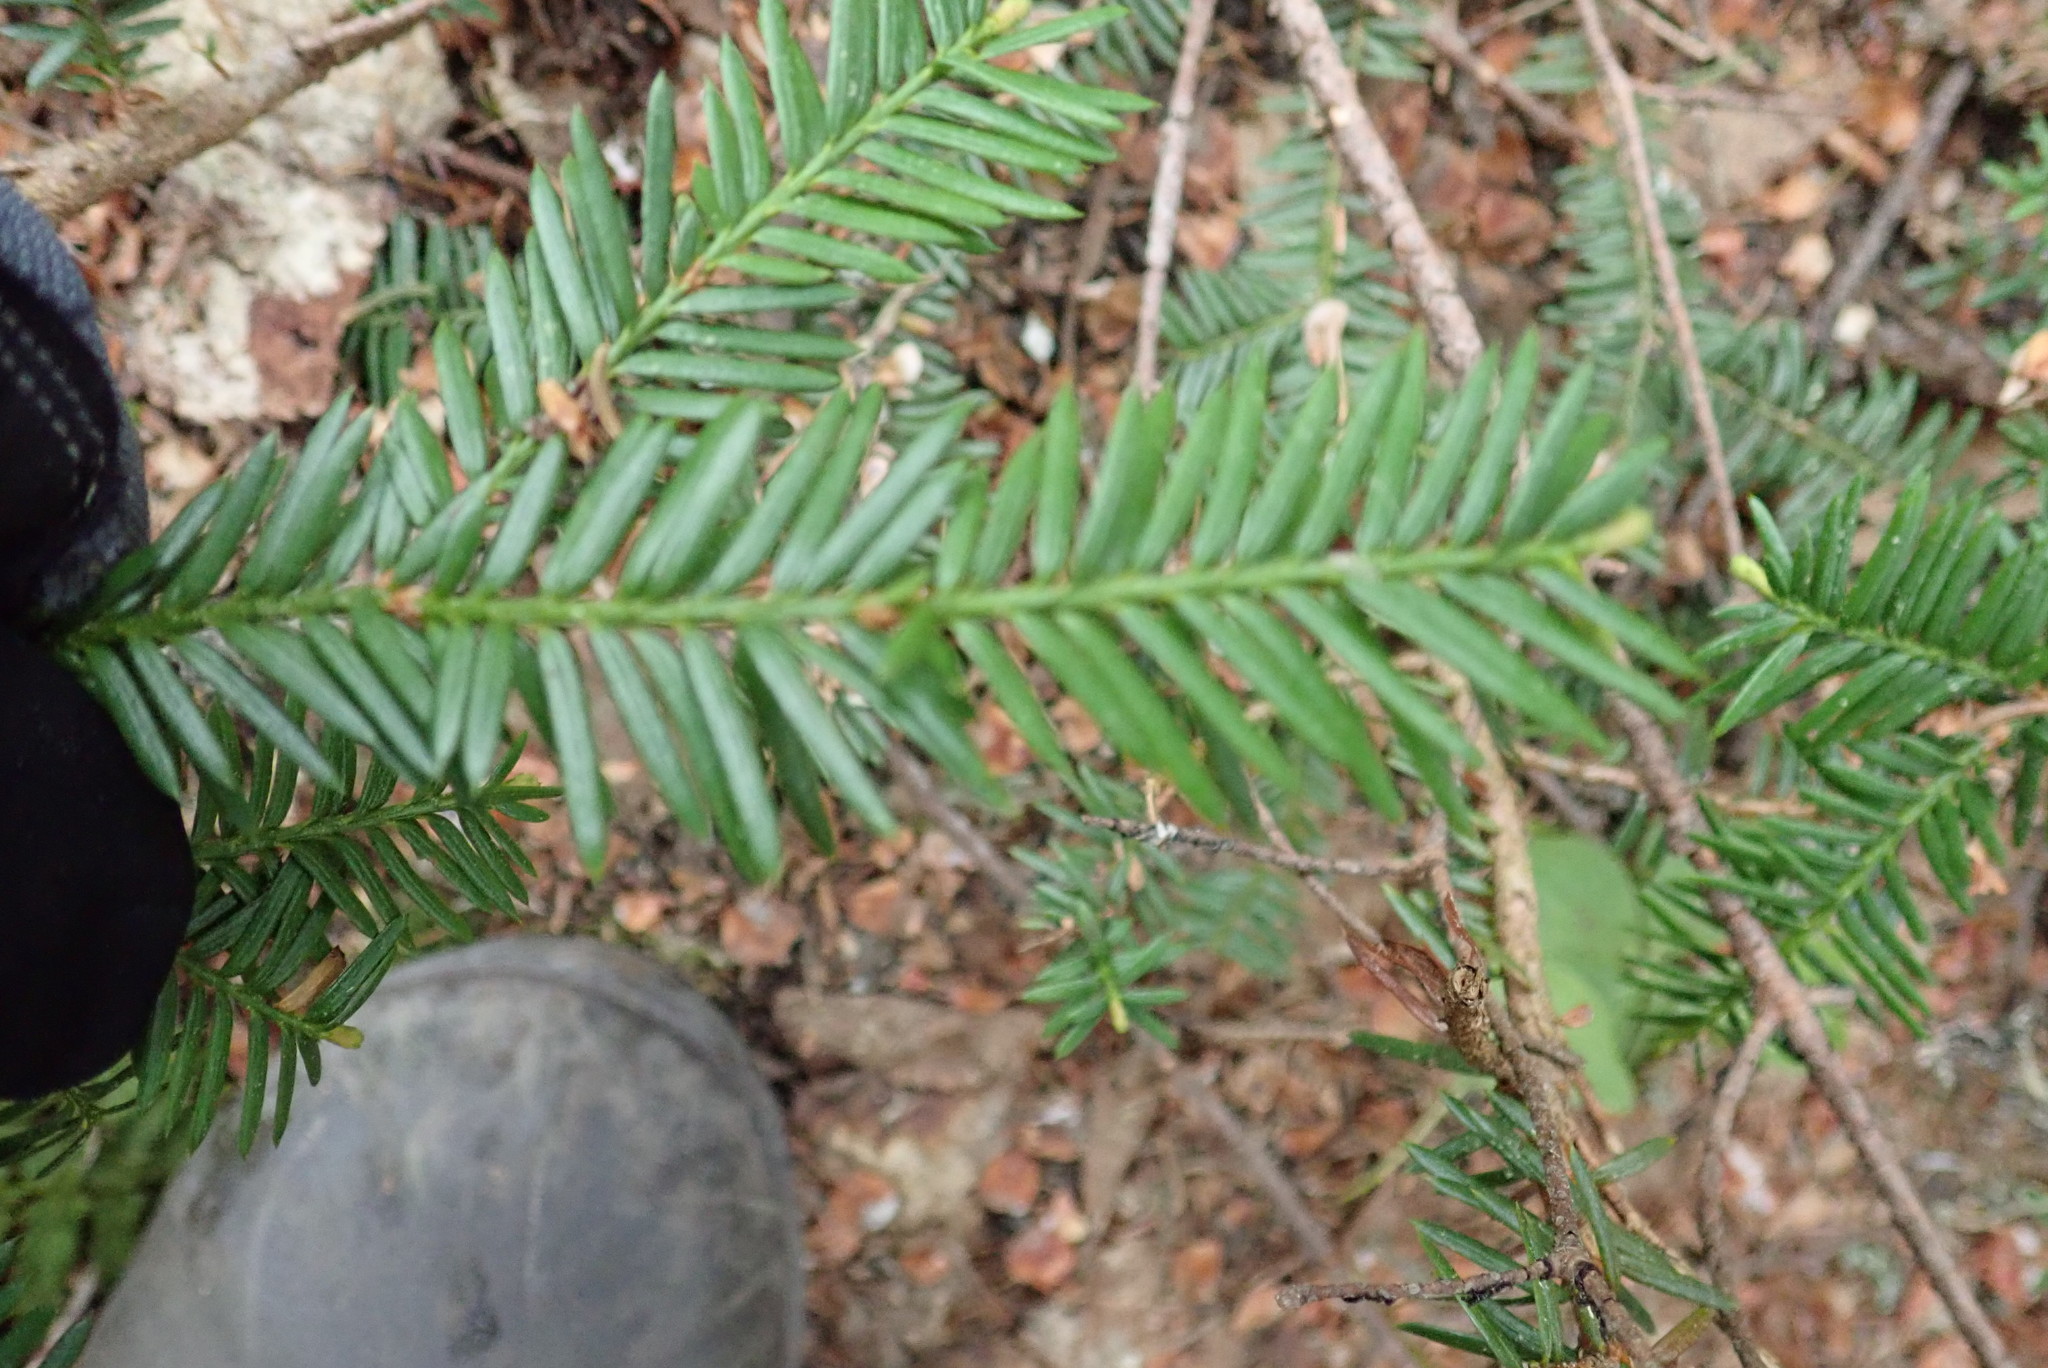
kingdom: Plantae
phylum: Tracheophyta
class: Pinopsida
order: Pinales
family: Taxaceae
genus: Taxus
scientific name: Taxus canadensis
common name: American yew
